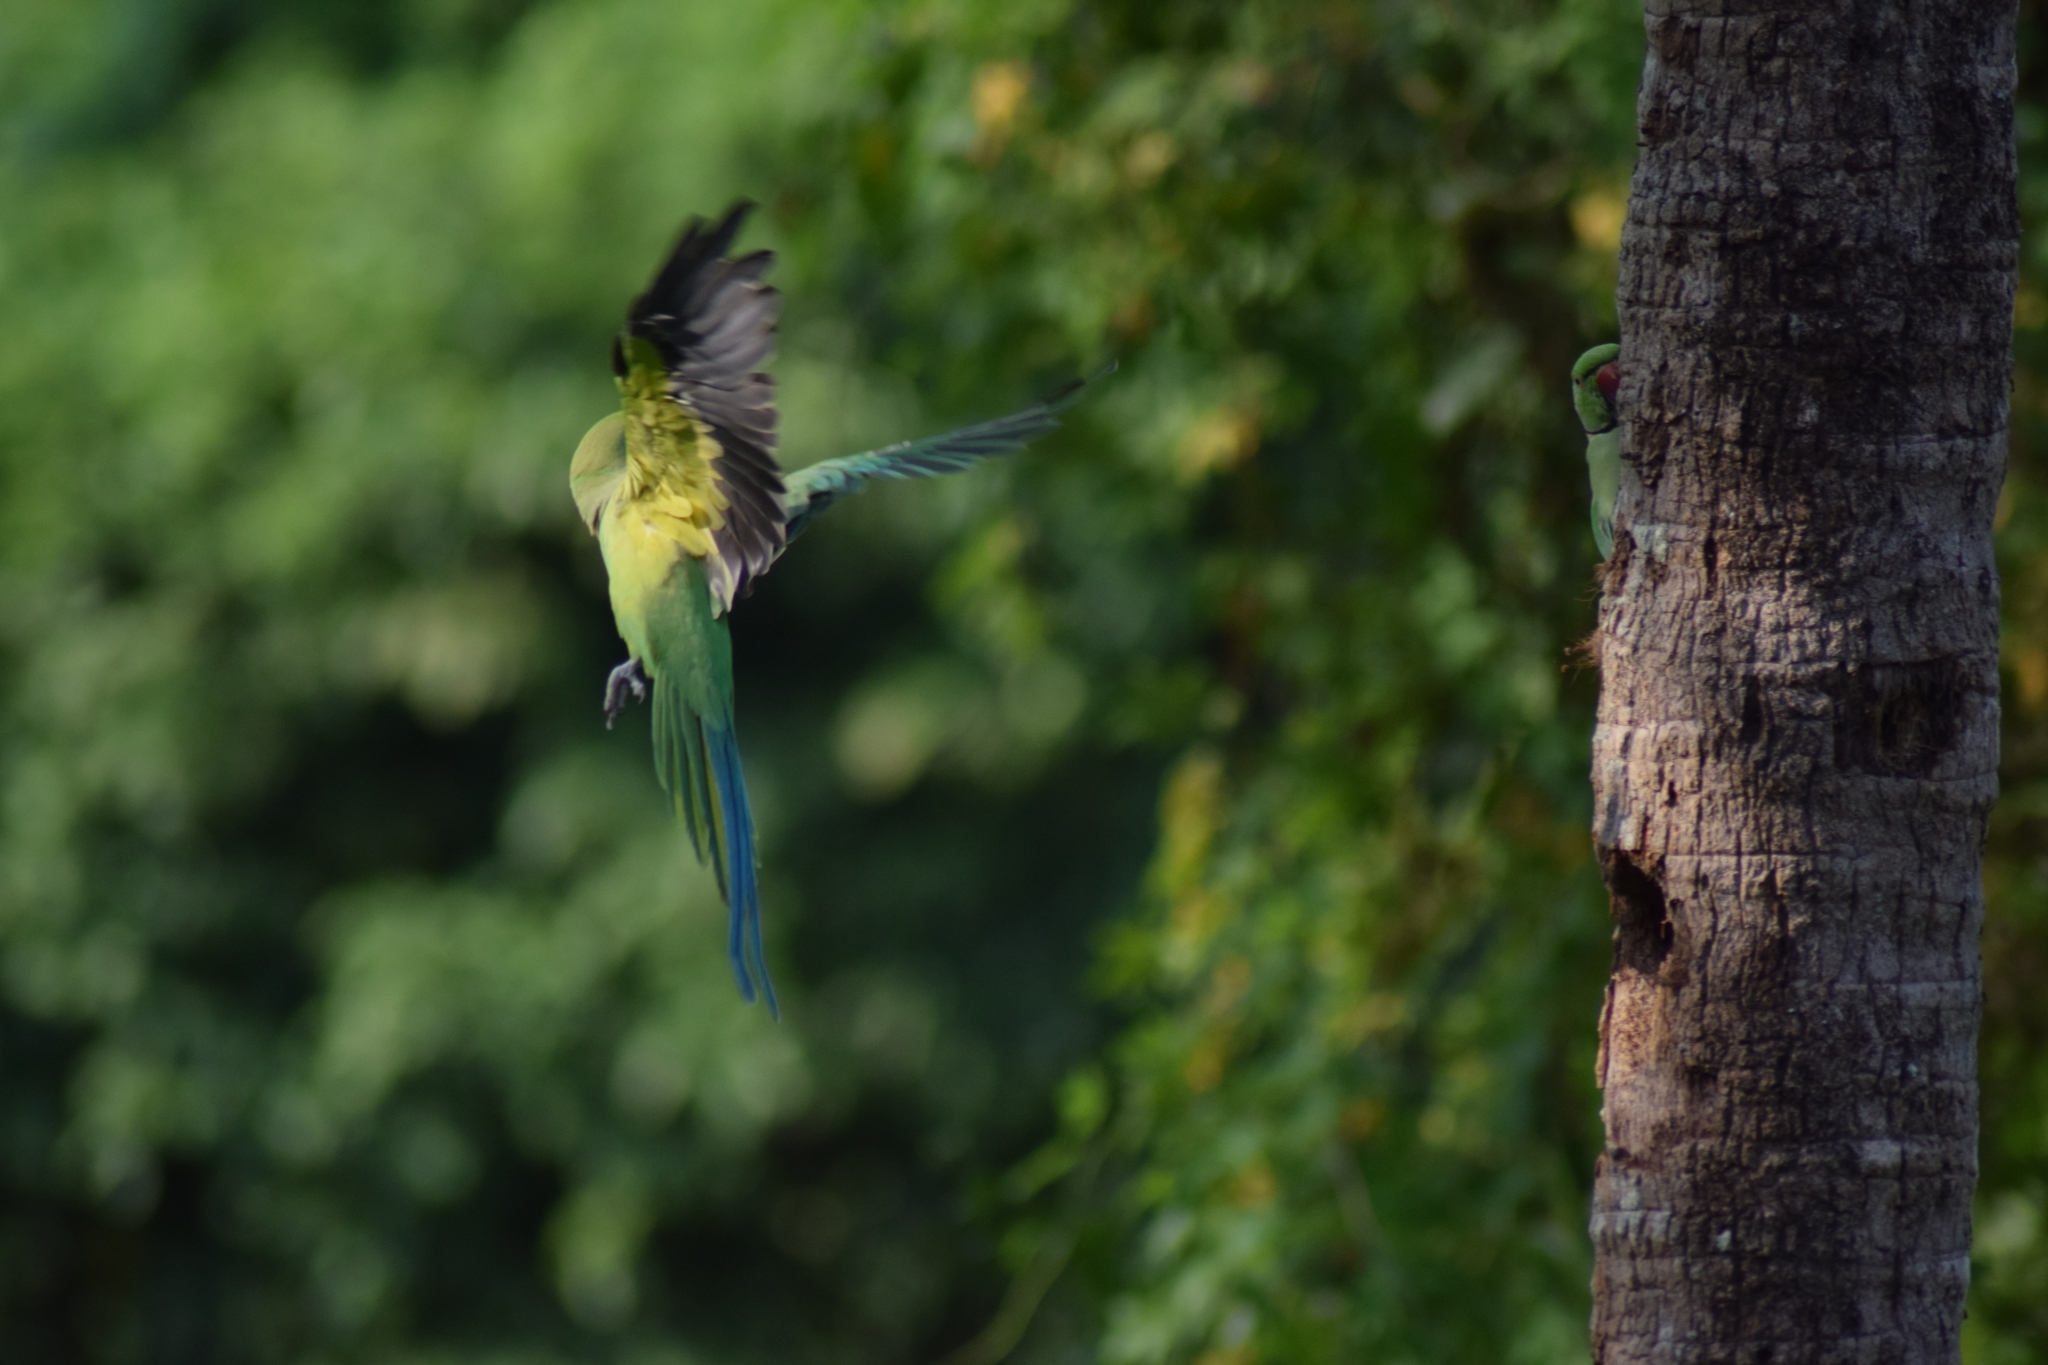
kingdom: Animalia
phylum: Chordata
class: Aves
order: Psittaciformes
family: Psittacidae
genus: Psittacula
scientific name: Psittacula krameri
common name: Rose-ringed parakeet
